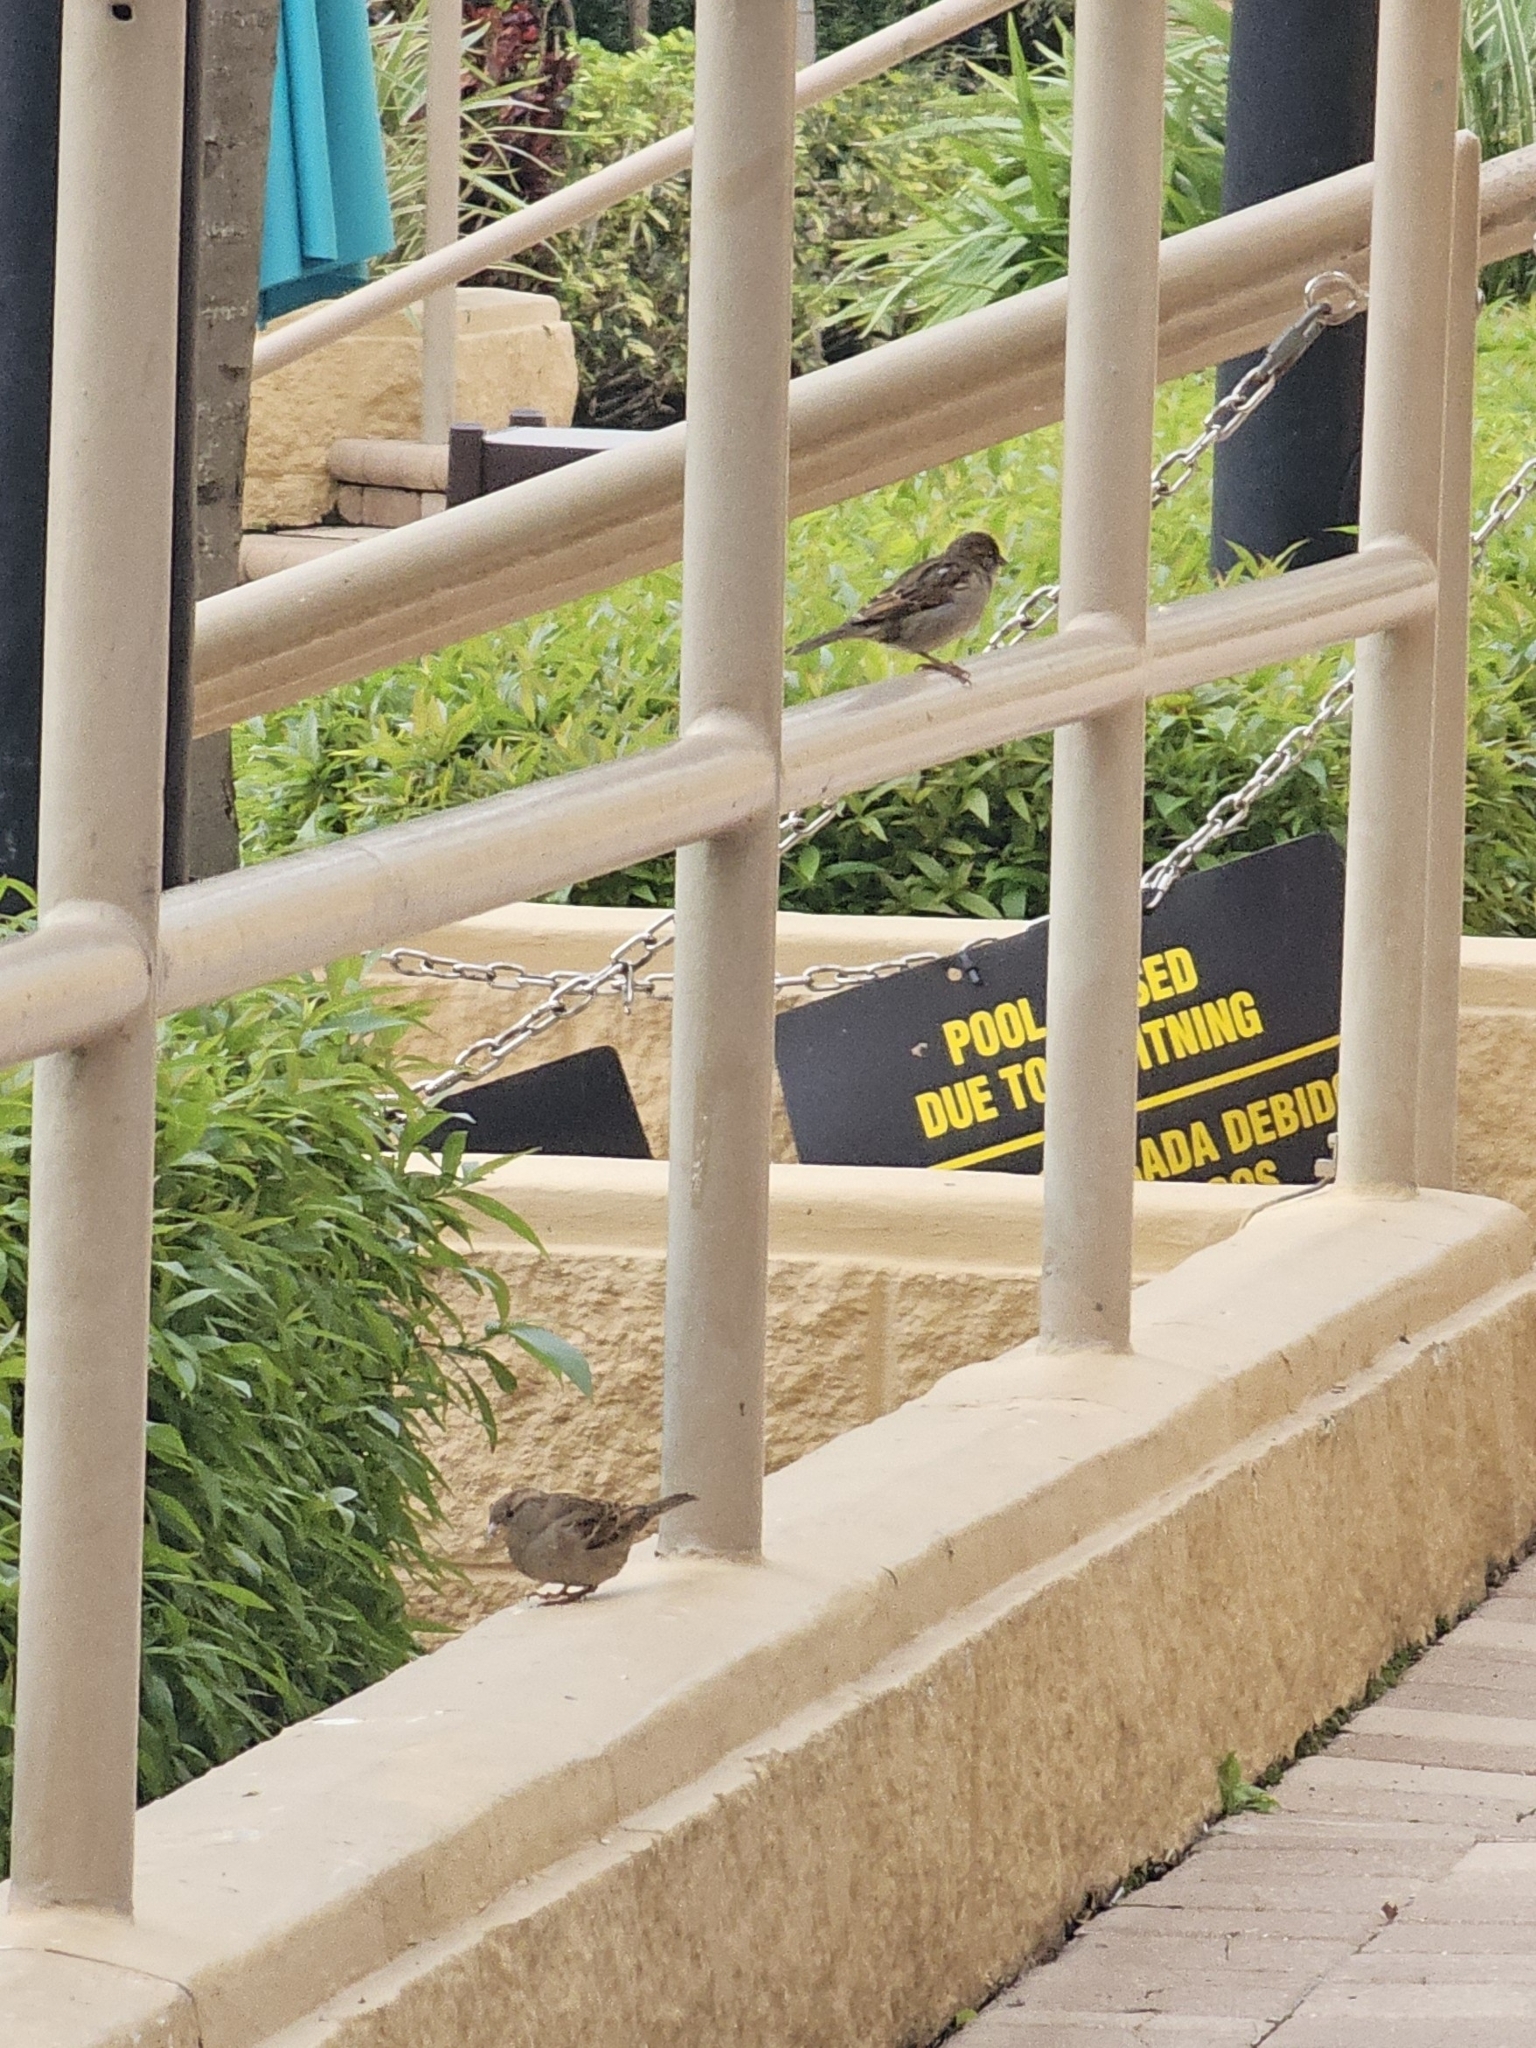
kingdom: Animalia
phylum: Chordata
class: Aves
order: Passeriformes
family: Passeridae
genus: Passer
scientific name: Passer domesticus
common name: House sparrow
